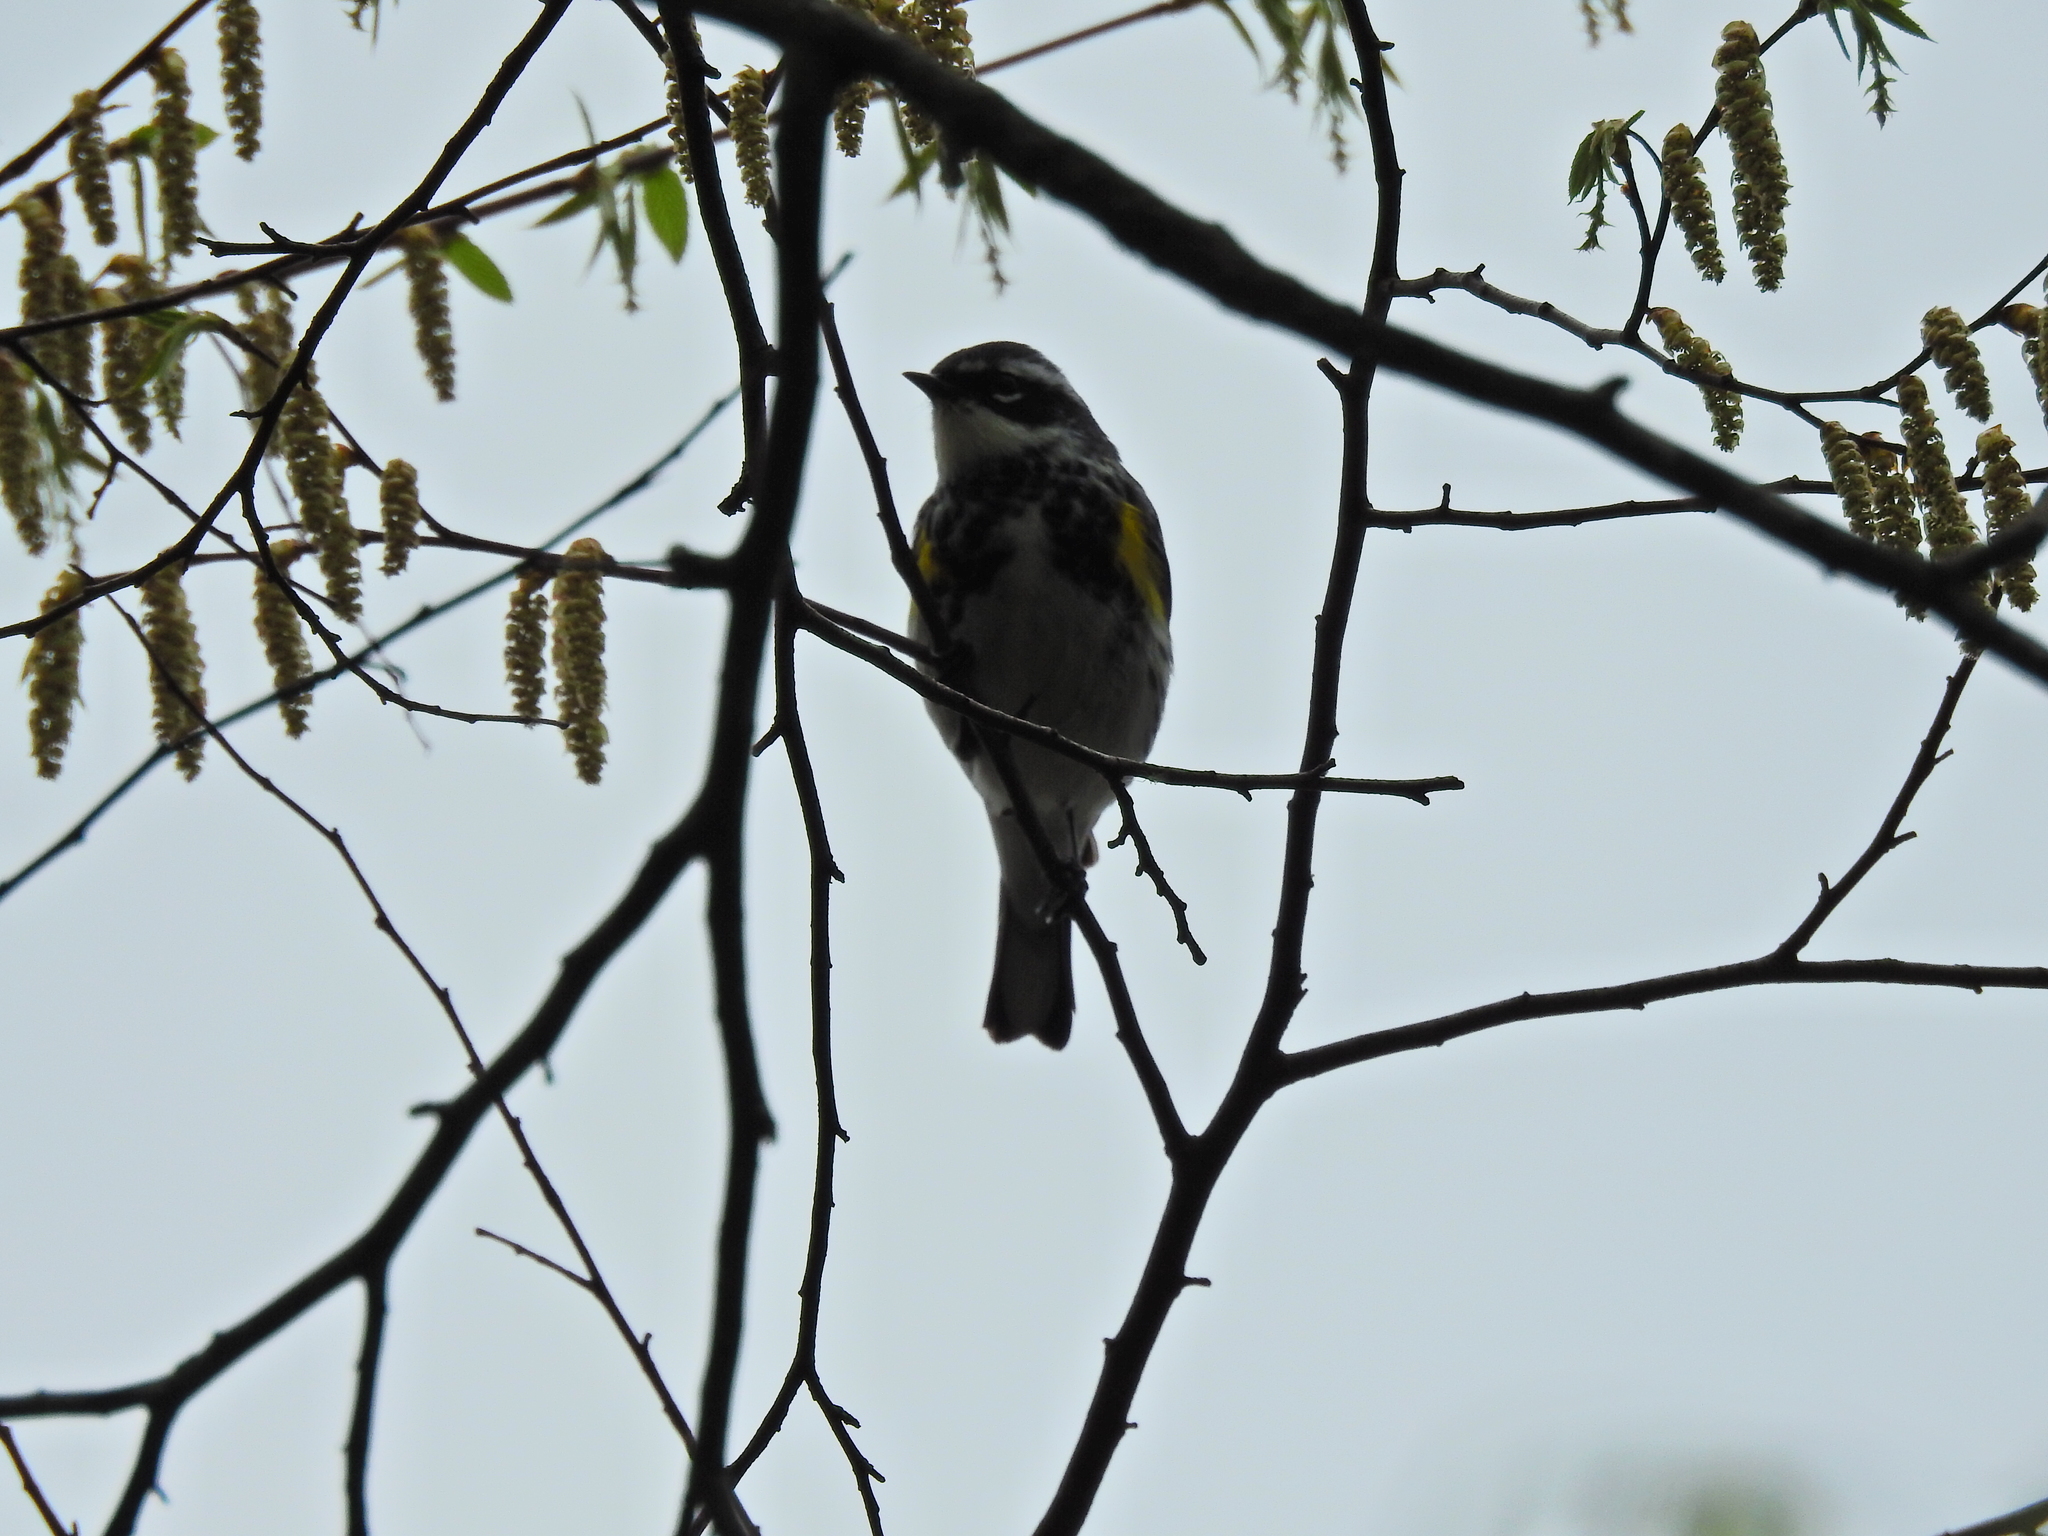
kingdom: Animalia
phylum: Chordata
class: Aves
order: Passeriformes
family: Parulidae
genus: Setophaga
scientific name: Setophaga coronata
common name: Myrtle warbler
